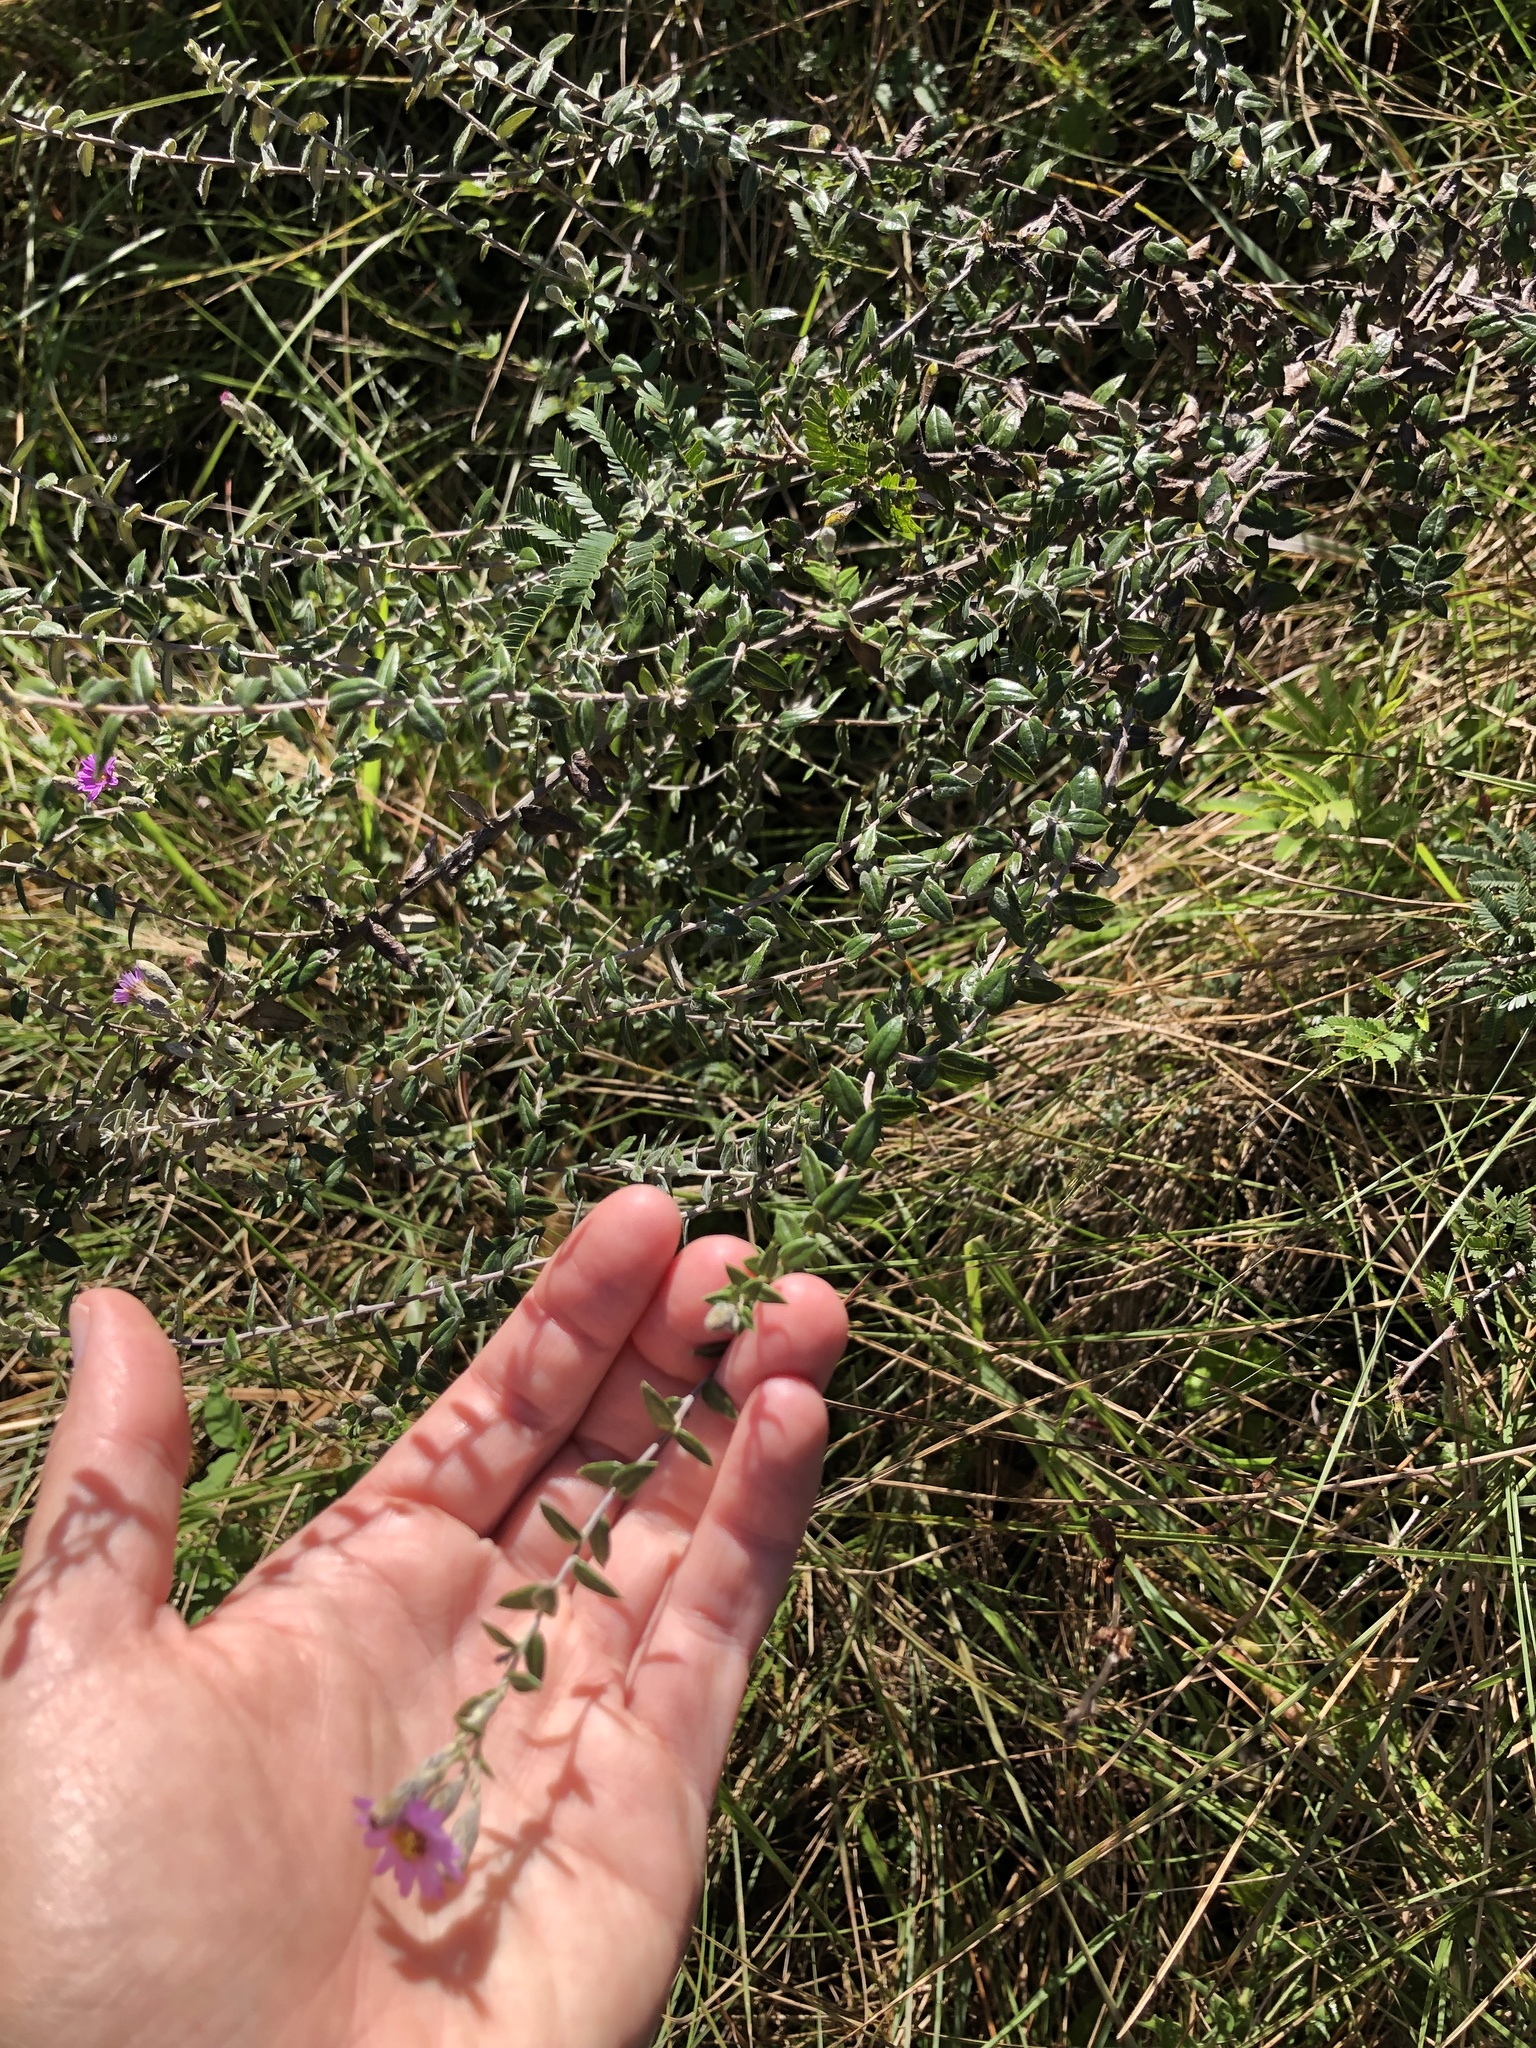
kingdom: Plantae
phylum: Tracheophyta
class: Magnoliopsida
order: Asterales
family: Asteraceae
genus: Athrixia
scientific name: Athrixia phylicoides
